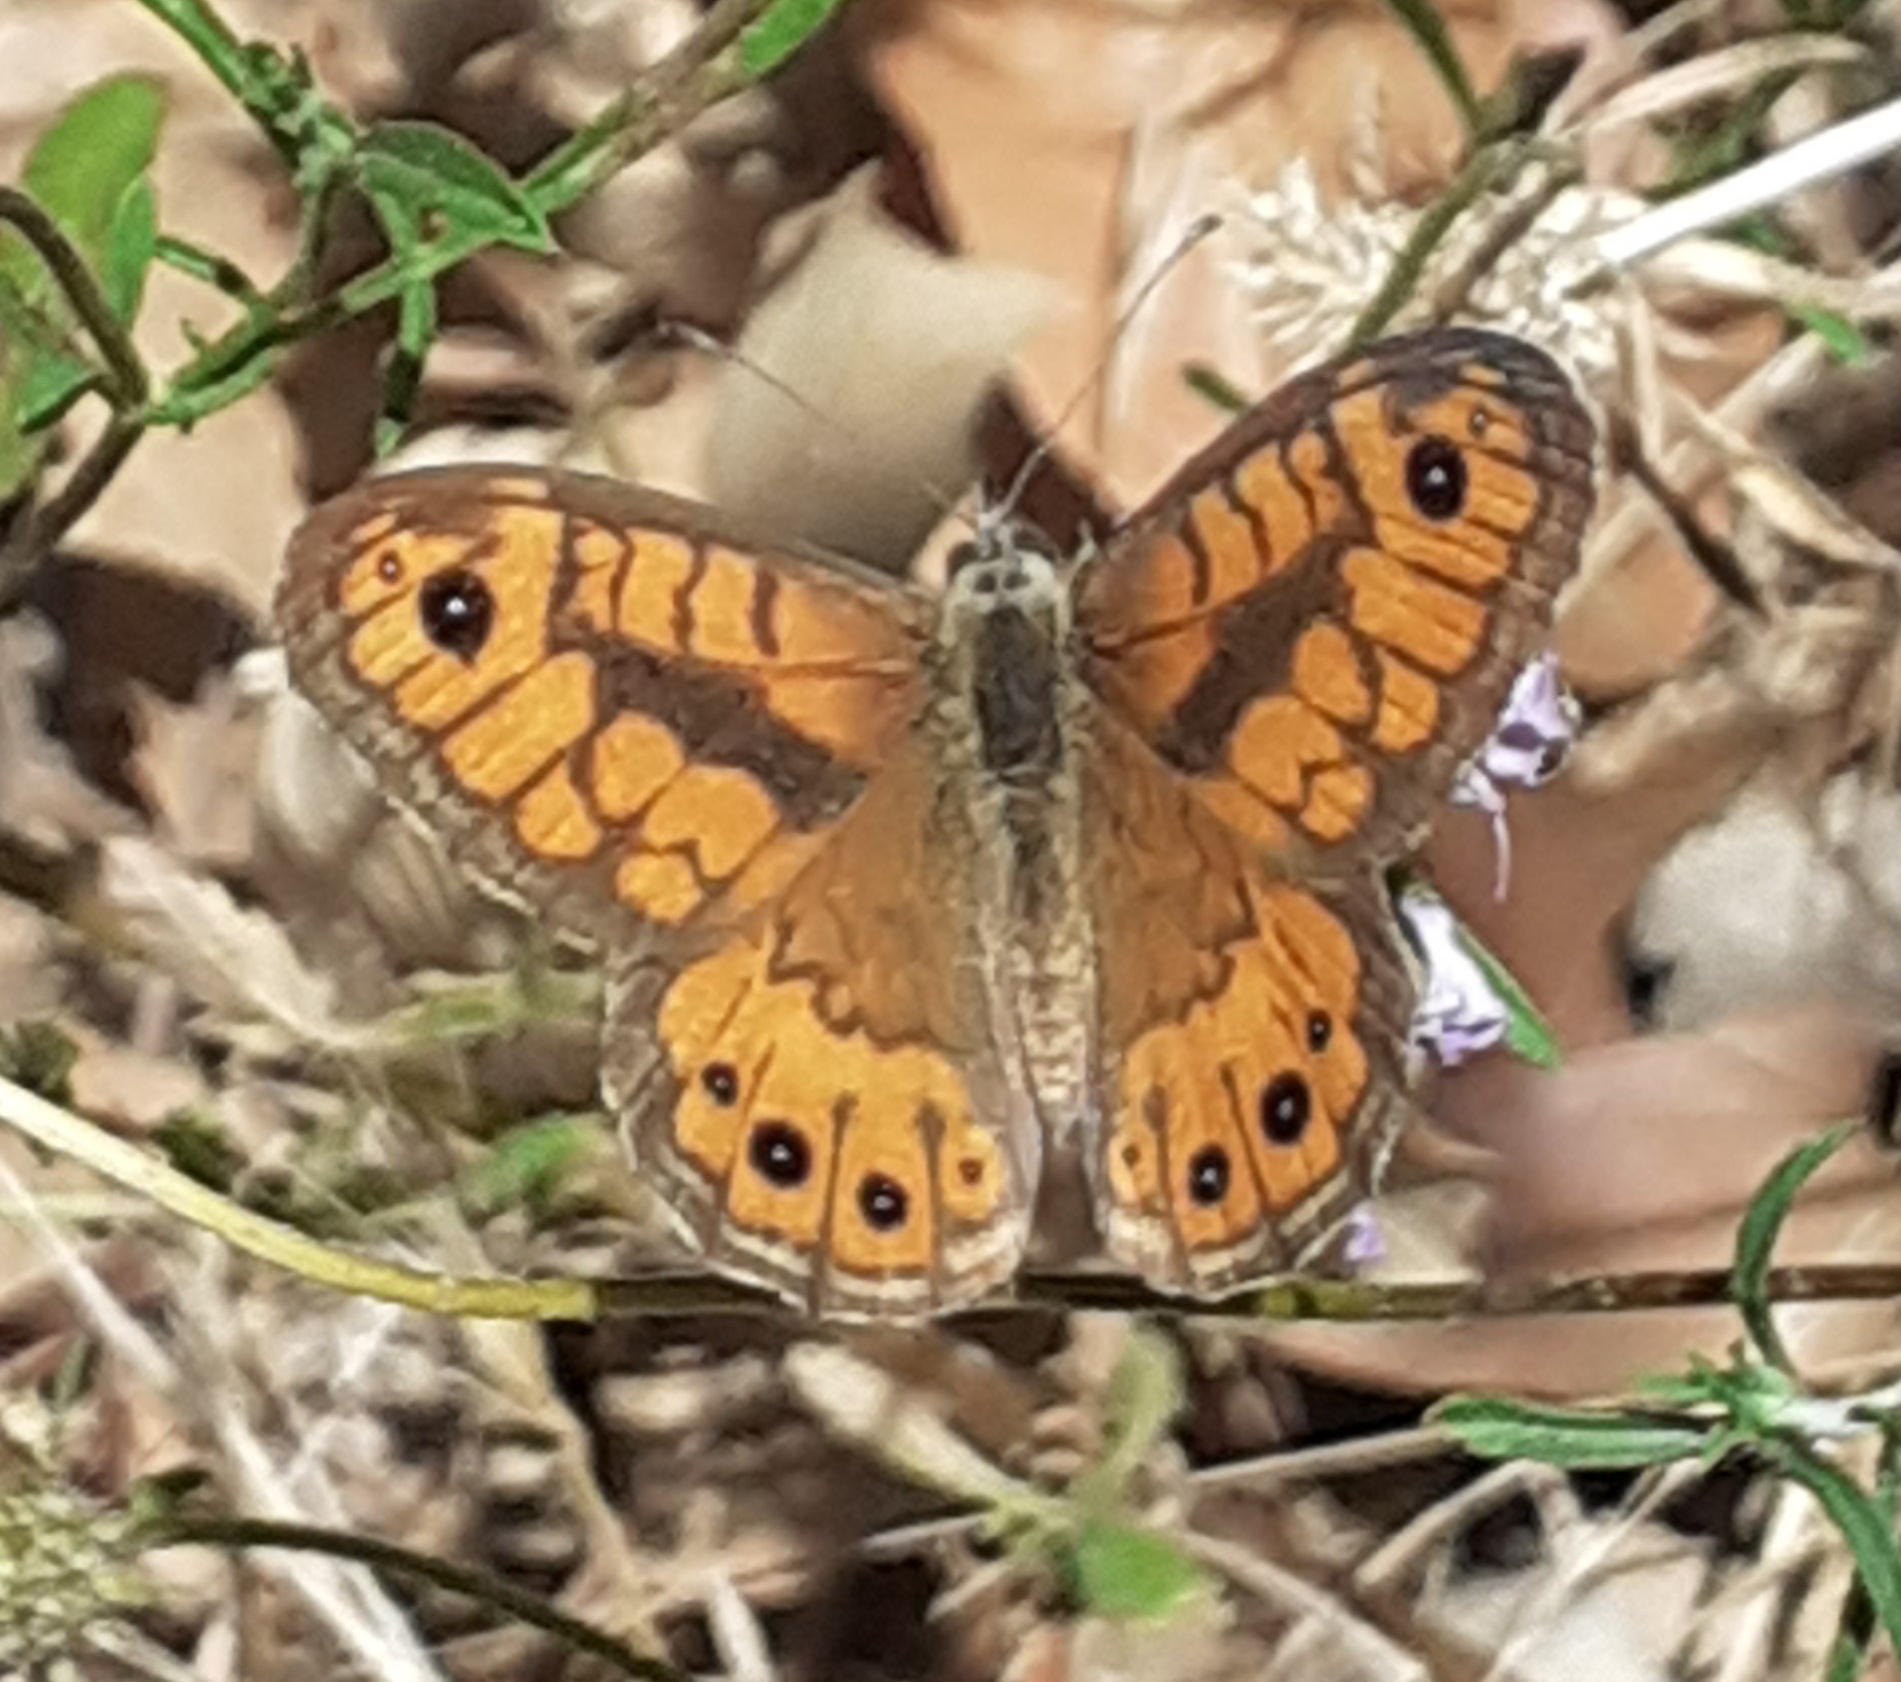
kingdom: Animalia
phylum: Arthropoda
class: Insecta
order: Lepidoptera
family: Nymphalidae
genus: Pararge
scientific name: Pararge Lasiommata megera
